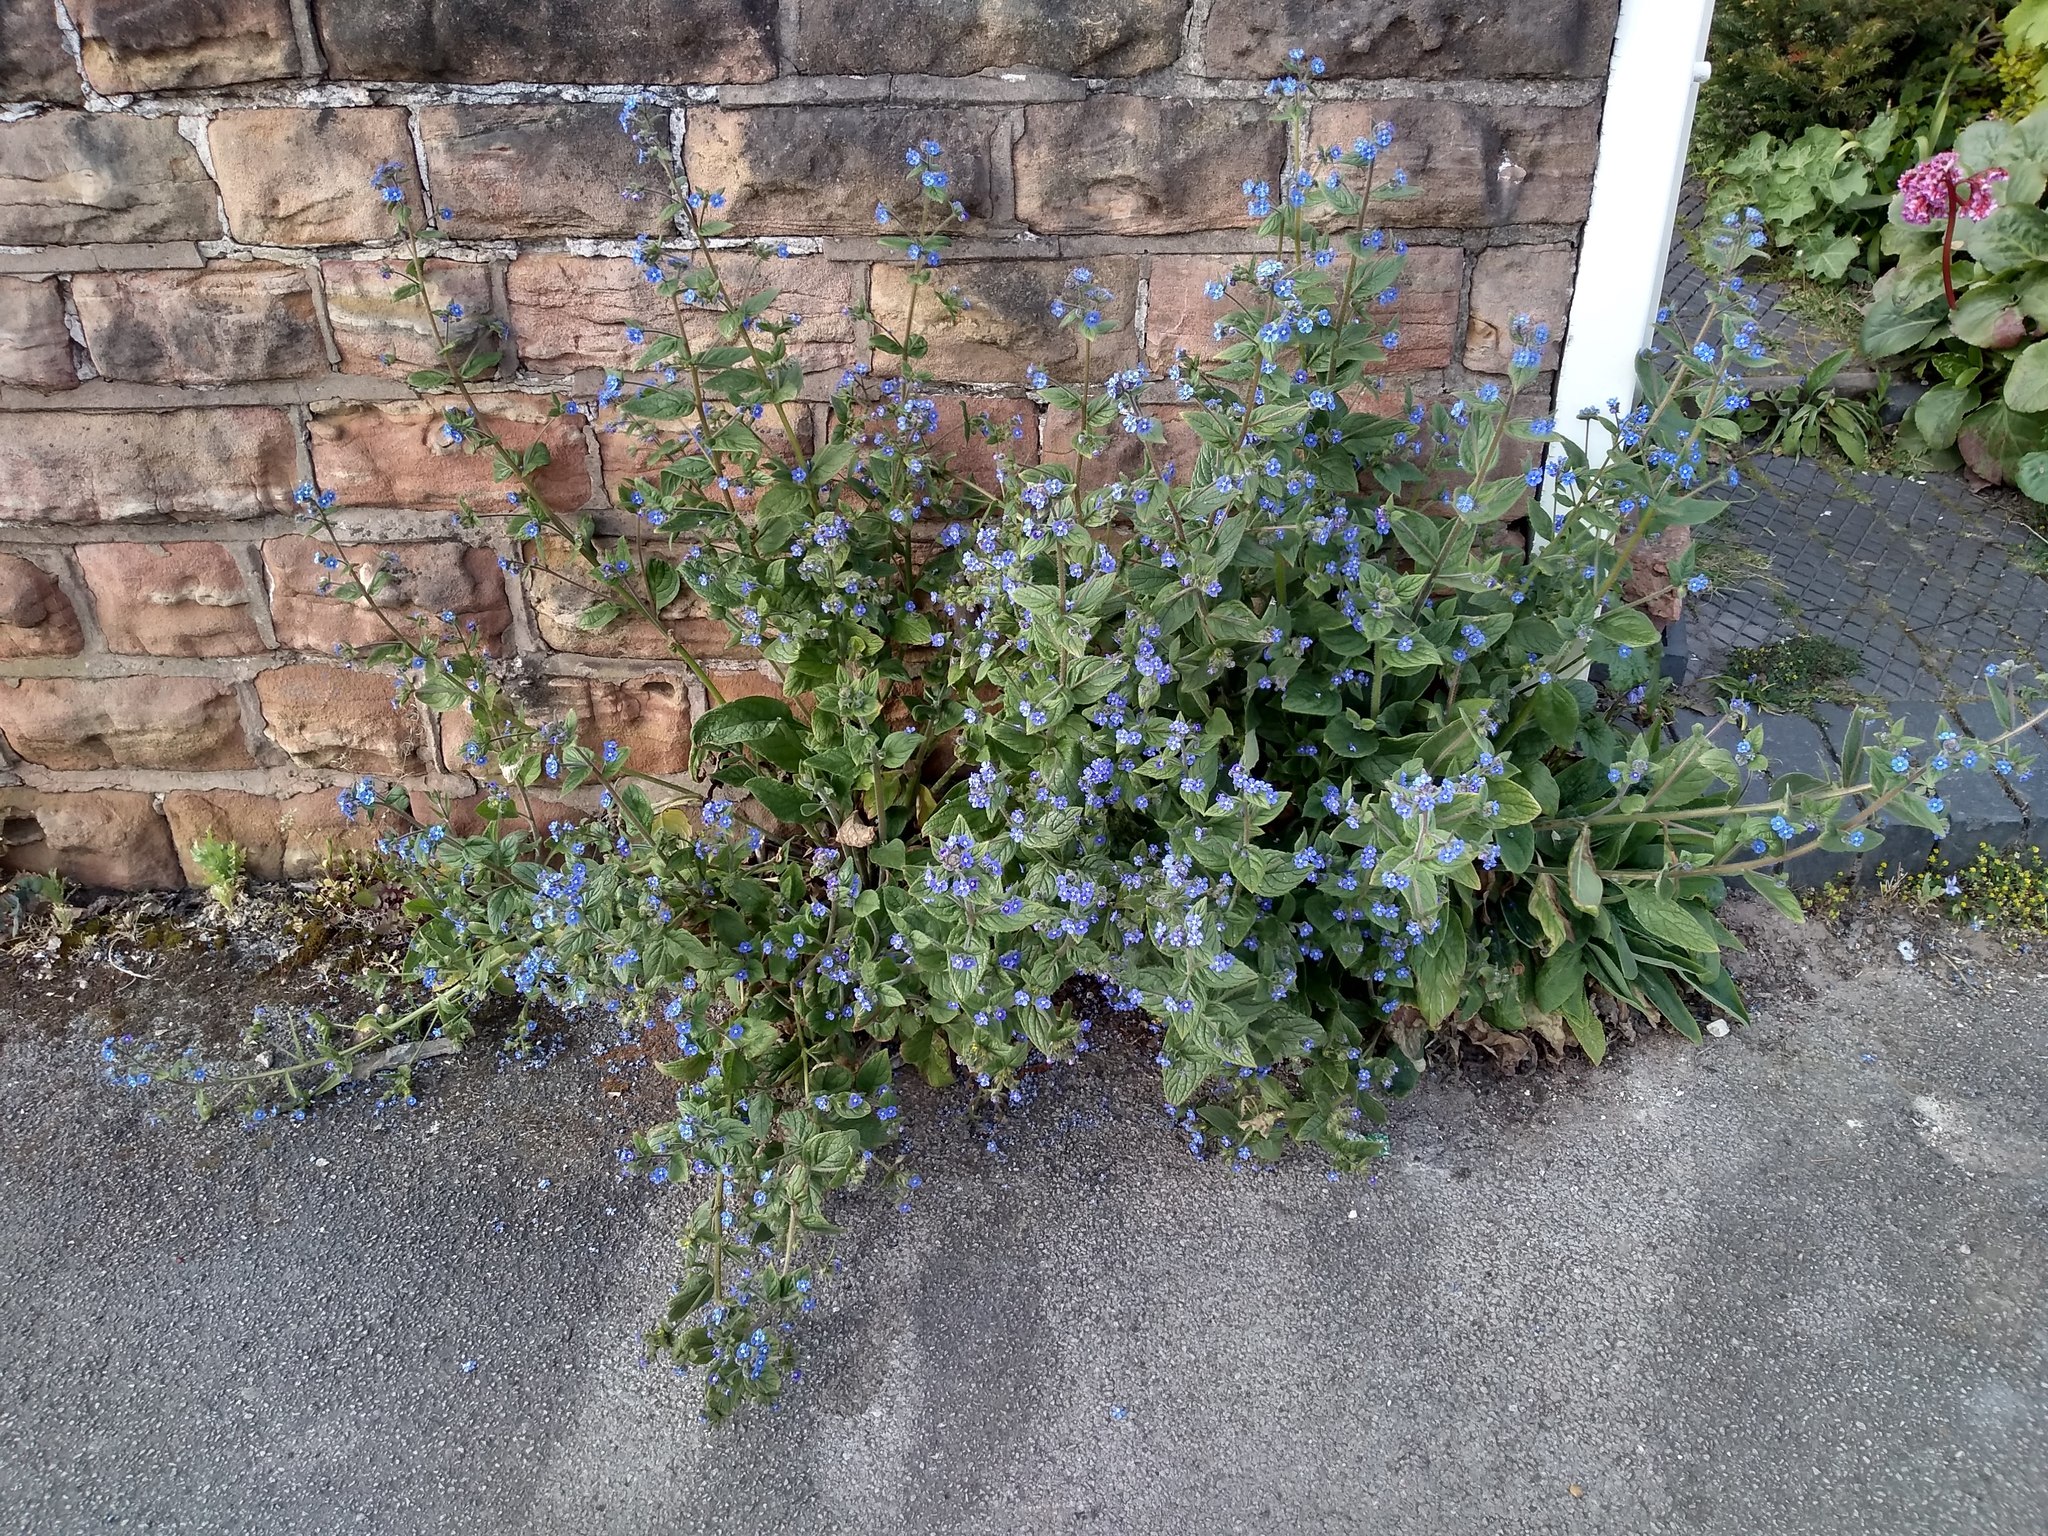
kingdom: Plantae
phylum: Tracheophyta
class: Magnoliopsida
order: Boraginales
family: Boraginaceae
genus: Pentaglottis
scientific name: Pentaglottis sempervirens
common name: Green alkanet
